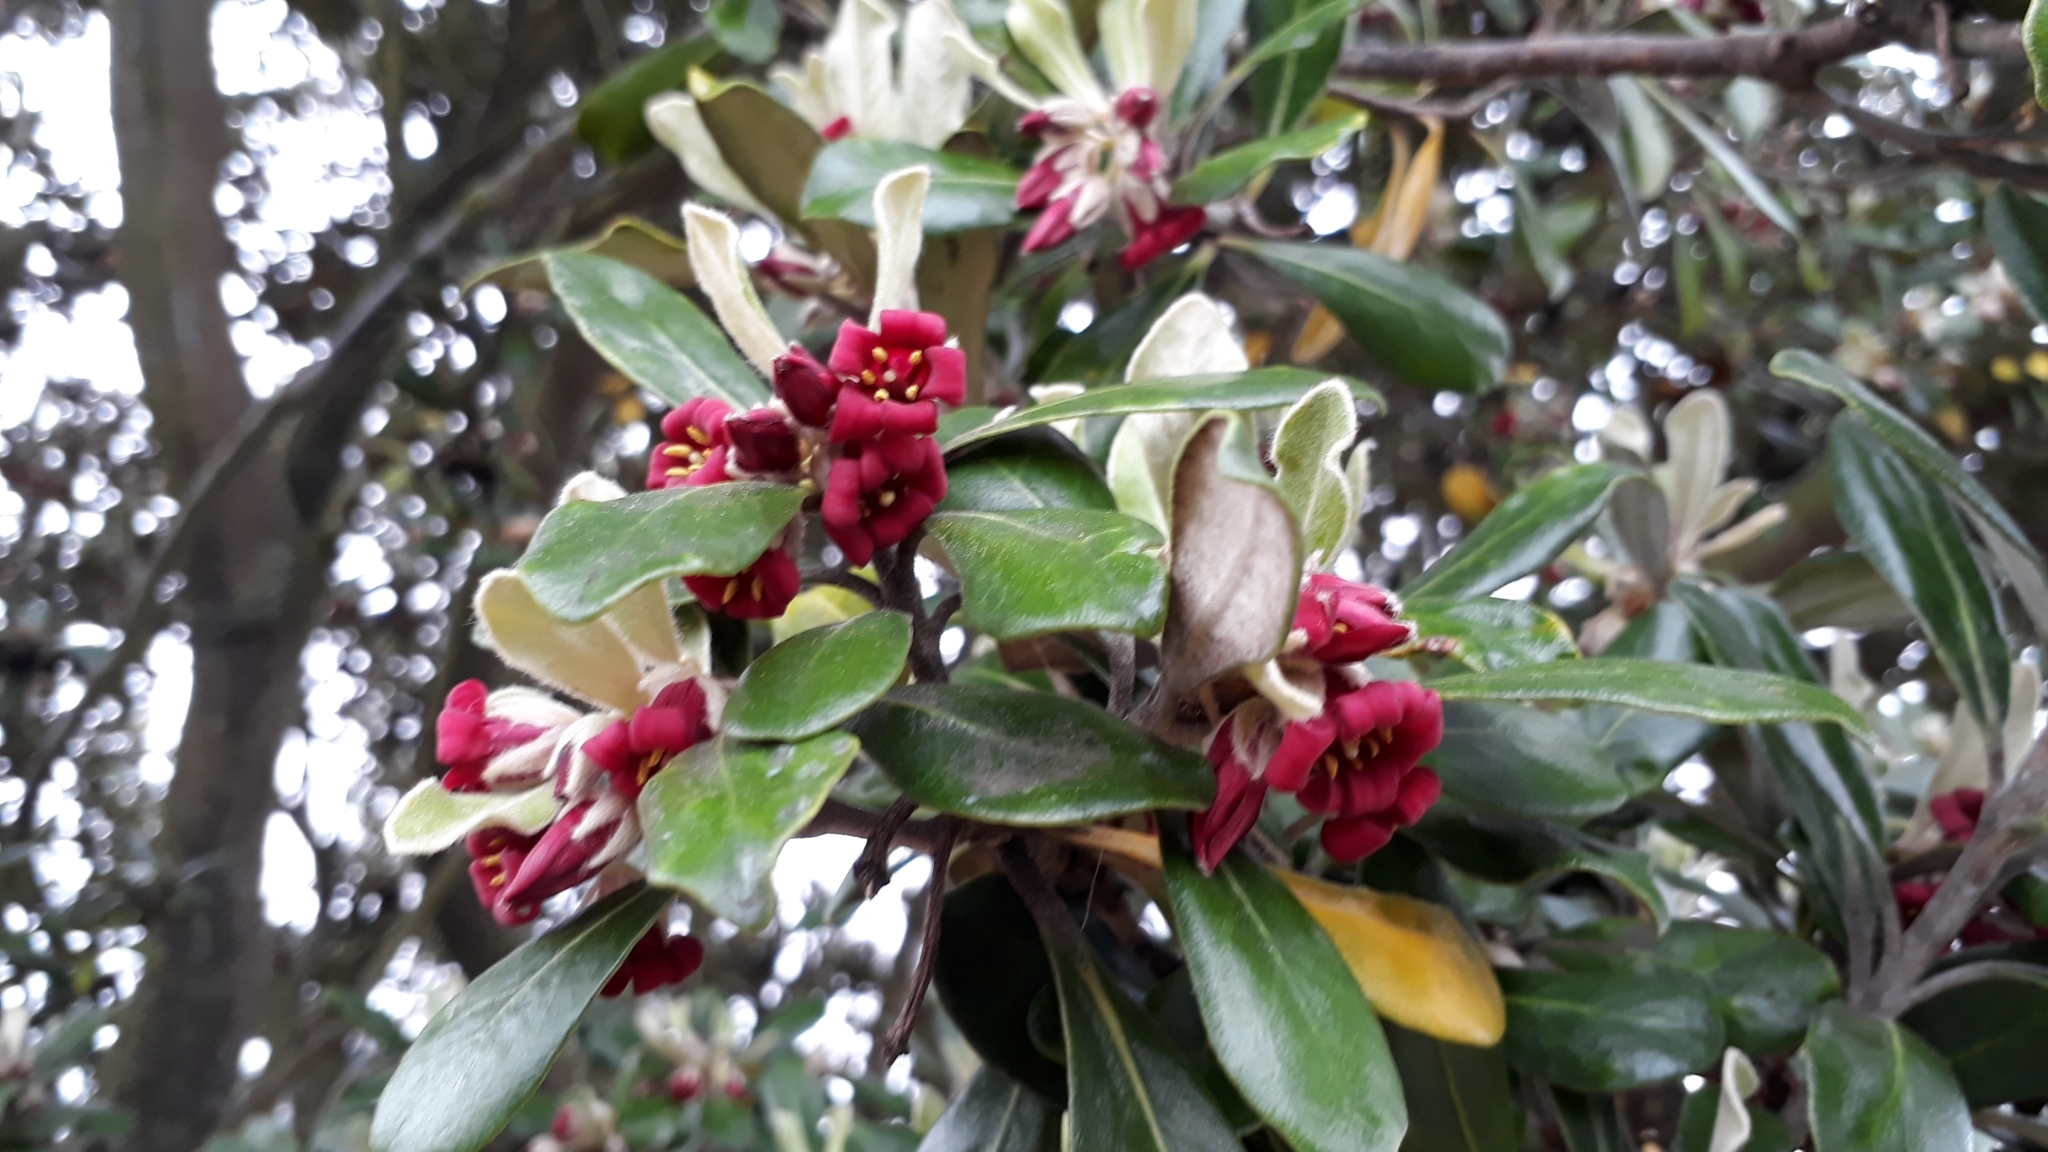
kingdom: Plantae
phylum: Tracheophyta
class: Magnoliopsida
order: Apiales
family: Pittosporaceae
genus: Pittosporum
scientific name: Pittosporum crassifolium
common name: Karo
